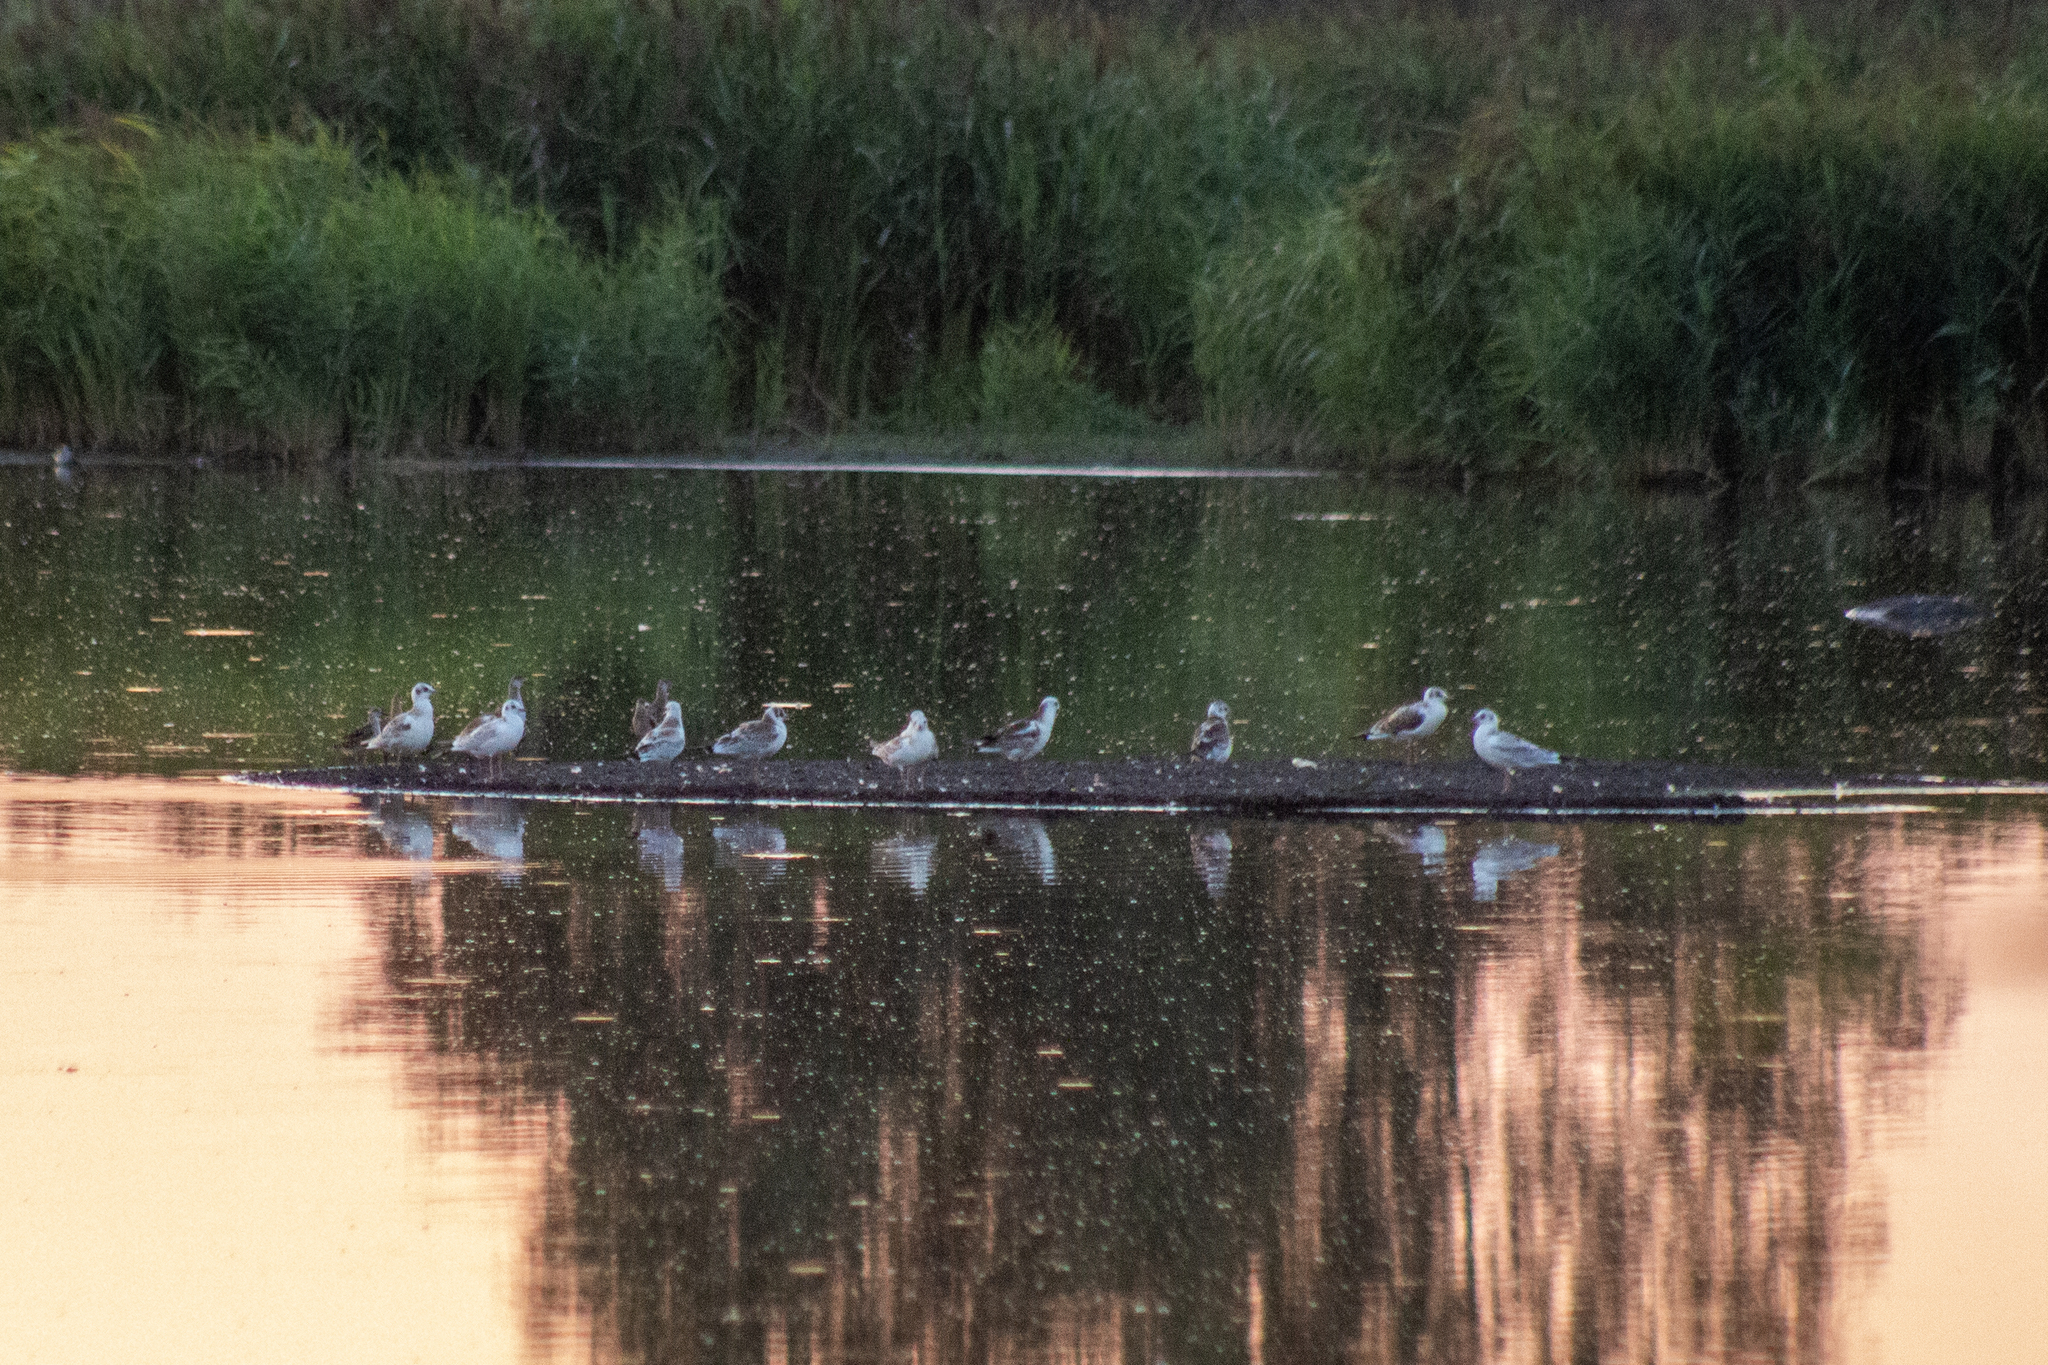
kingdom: Animalia
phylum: Chordata
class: Aves
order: Charadriiformes
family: Laridae
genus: Chroicocephalus
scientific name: Chroicocephalus ridibundus
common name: Black-headed gull
